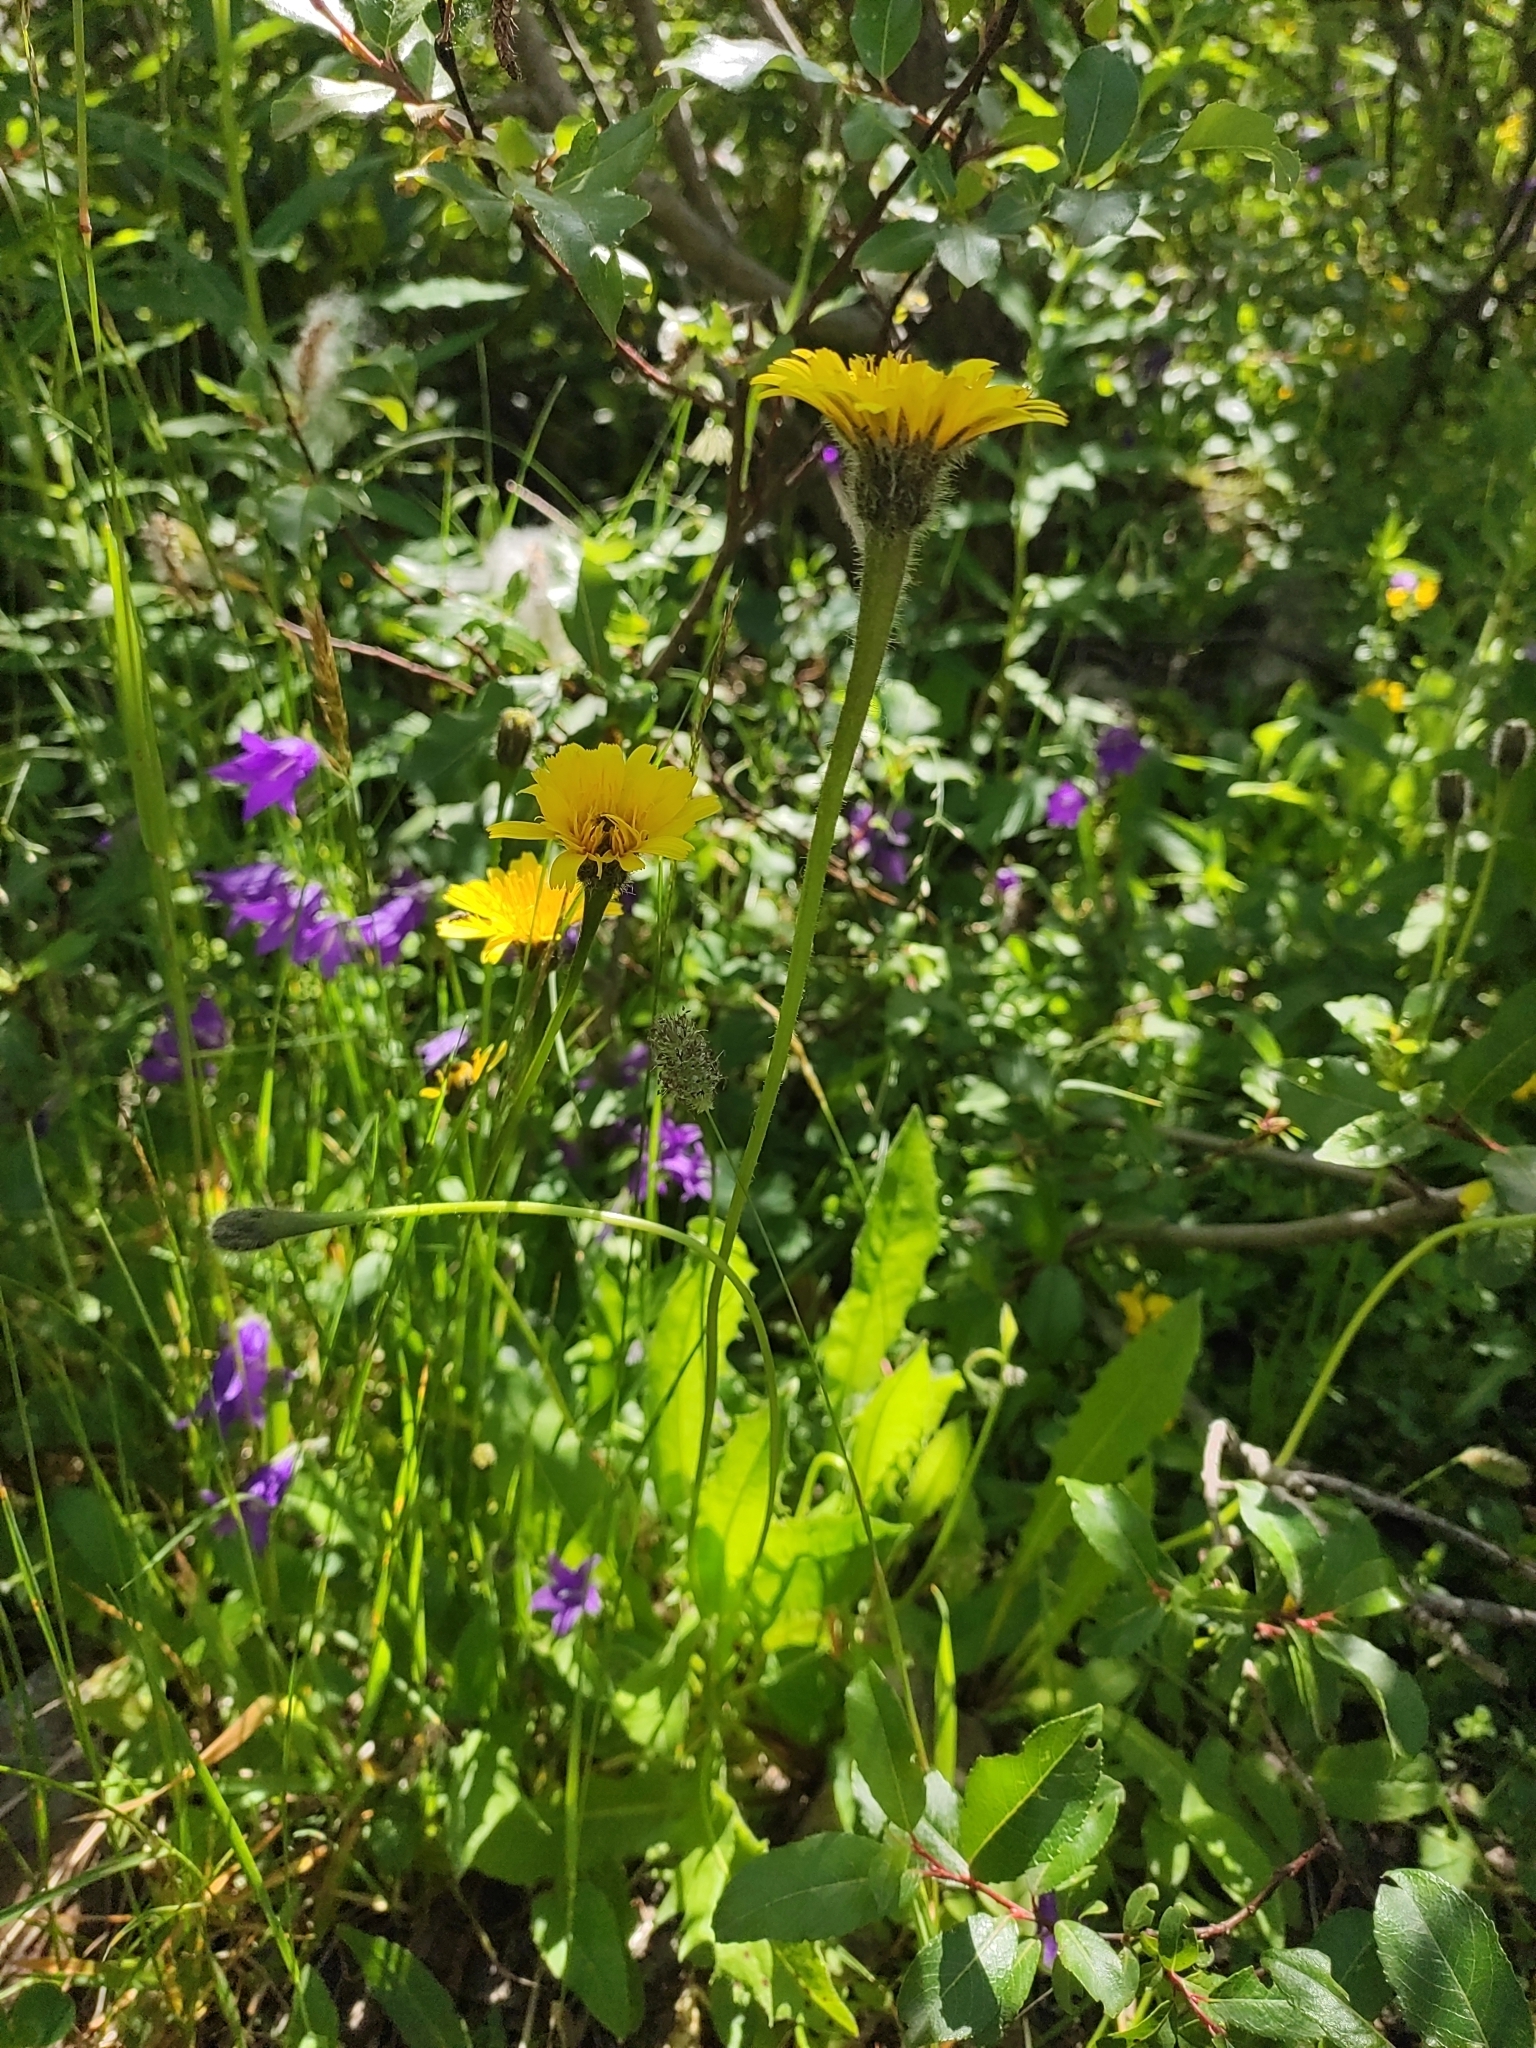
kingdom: Plantae
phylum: Tracheophyta
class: Magnoliopsida
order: Asterales
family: Asteraceae
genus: Leontodon
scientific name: Leontodon caucasicus
